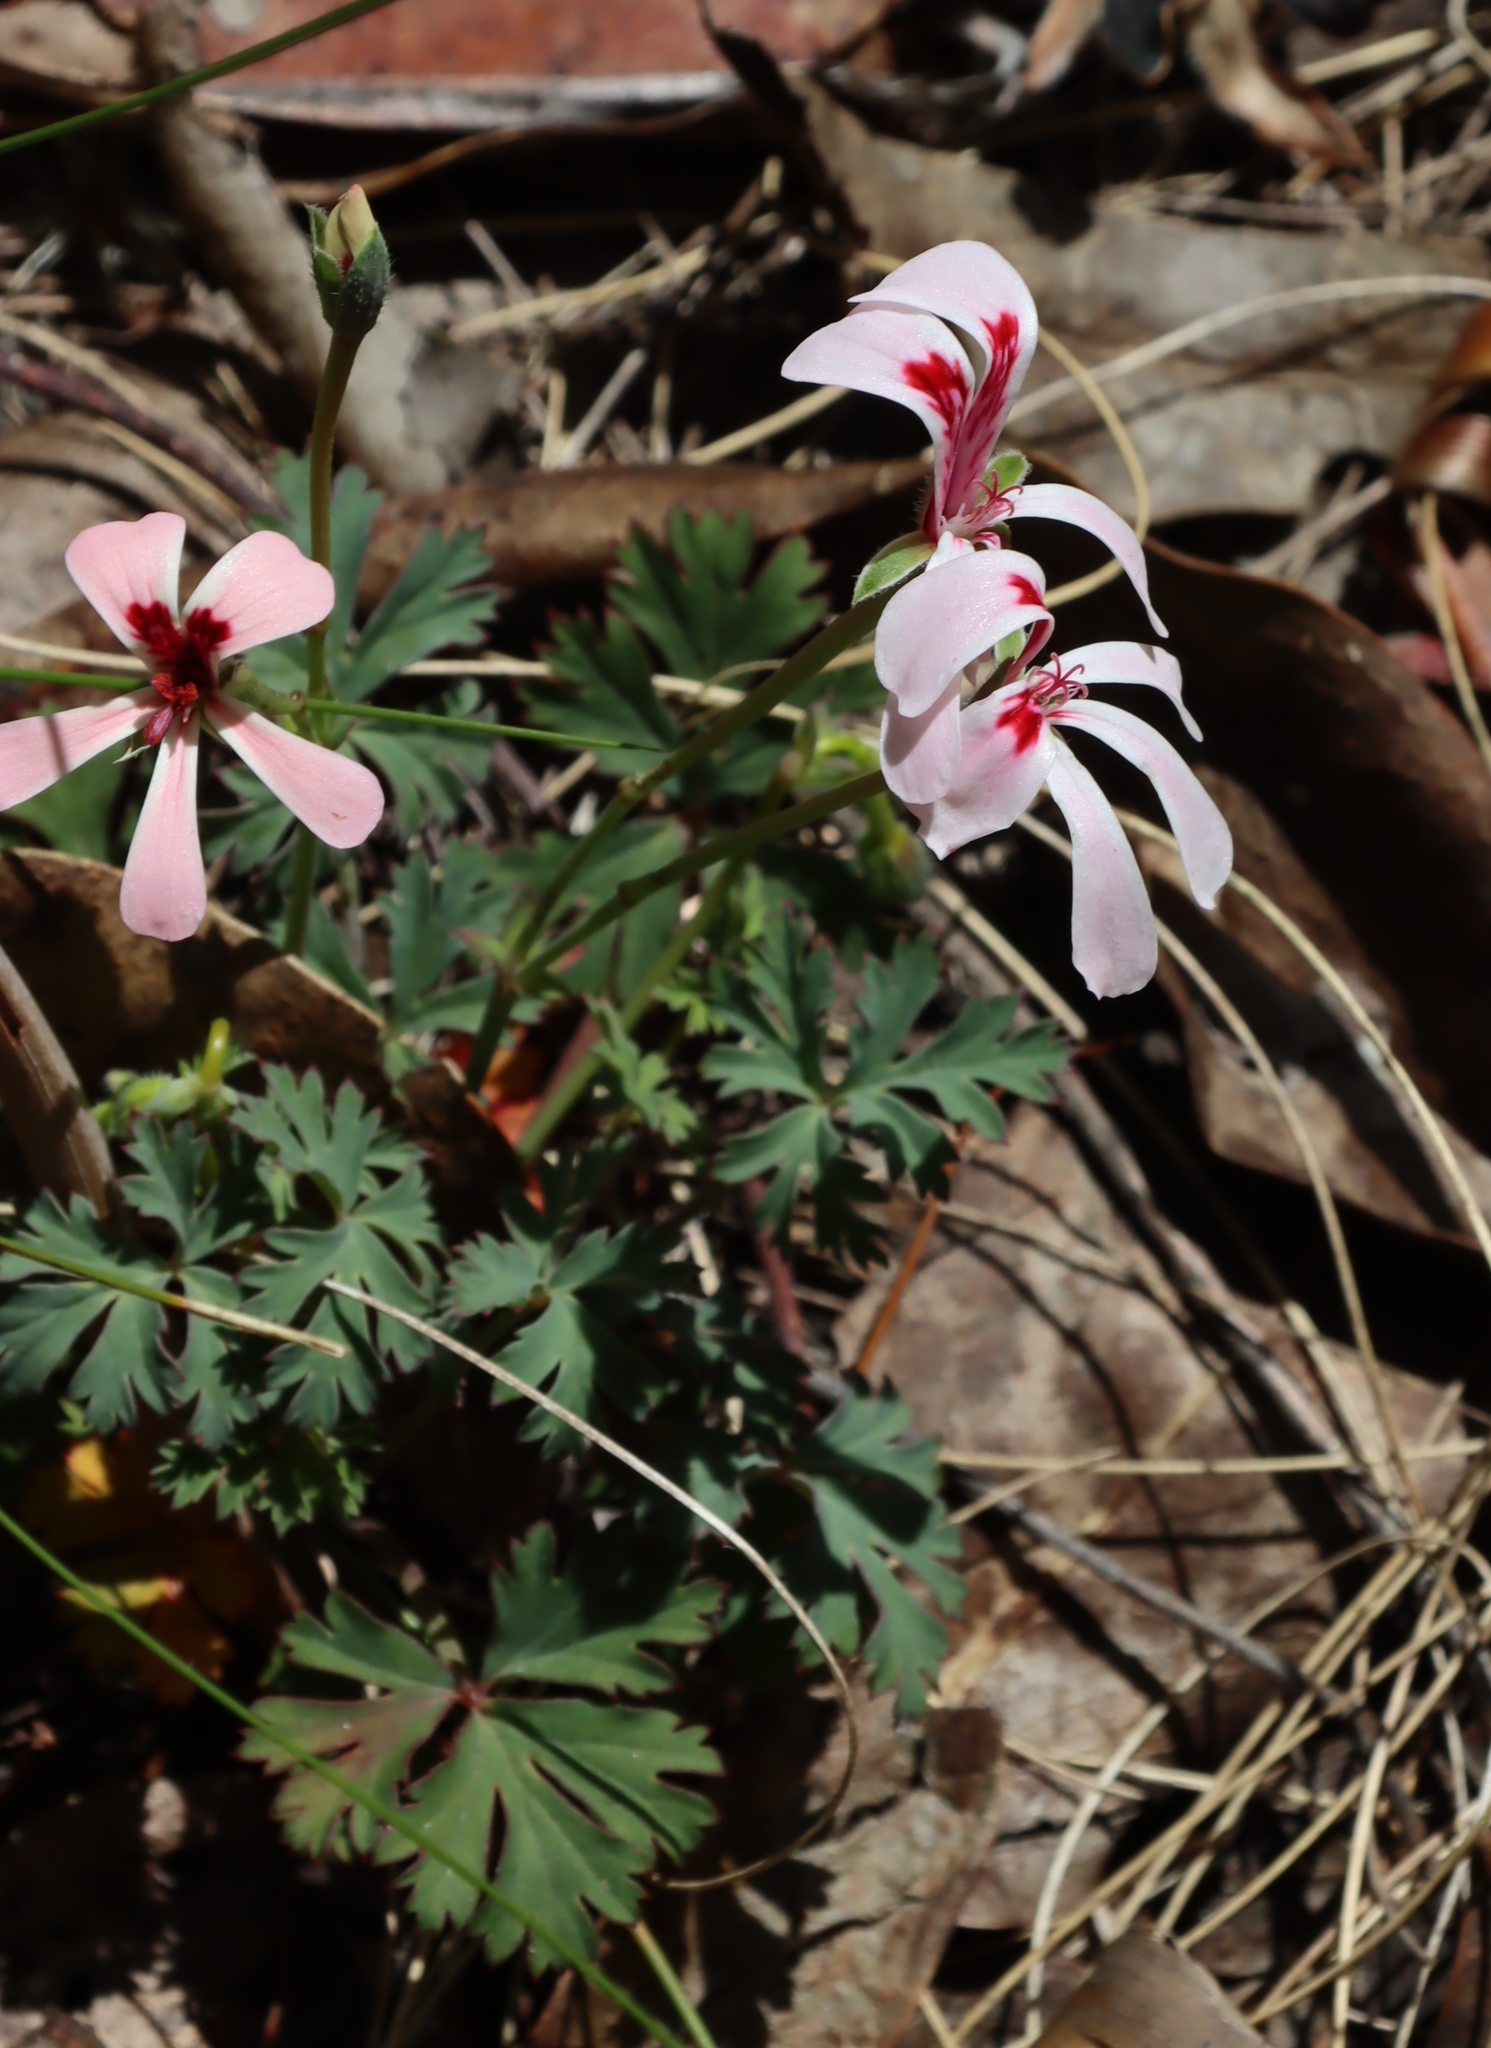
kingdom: Plantae
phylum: Tracheophyta
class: Magnoliopsida
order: Geraniales
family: Geraniaceae
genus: Pelargonium
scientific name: Pelargonium patulum
